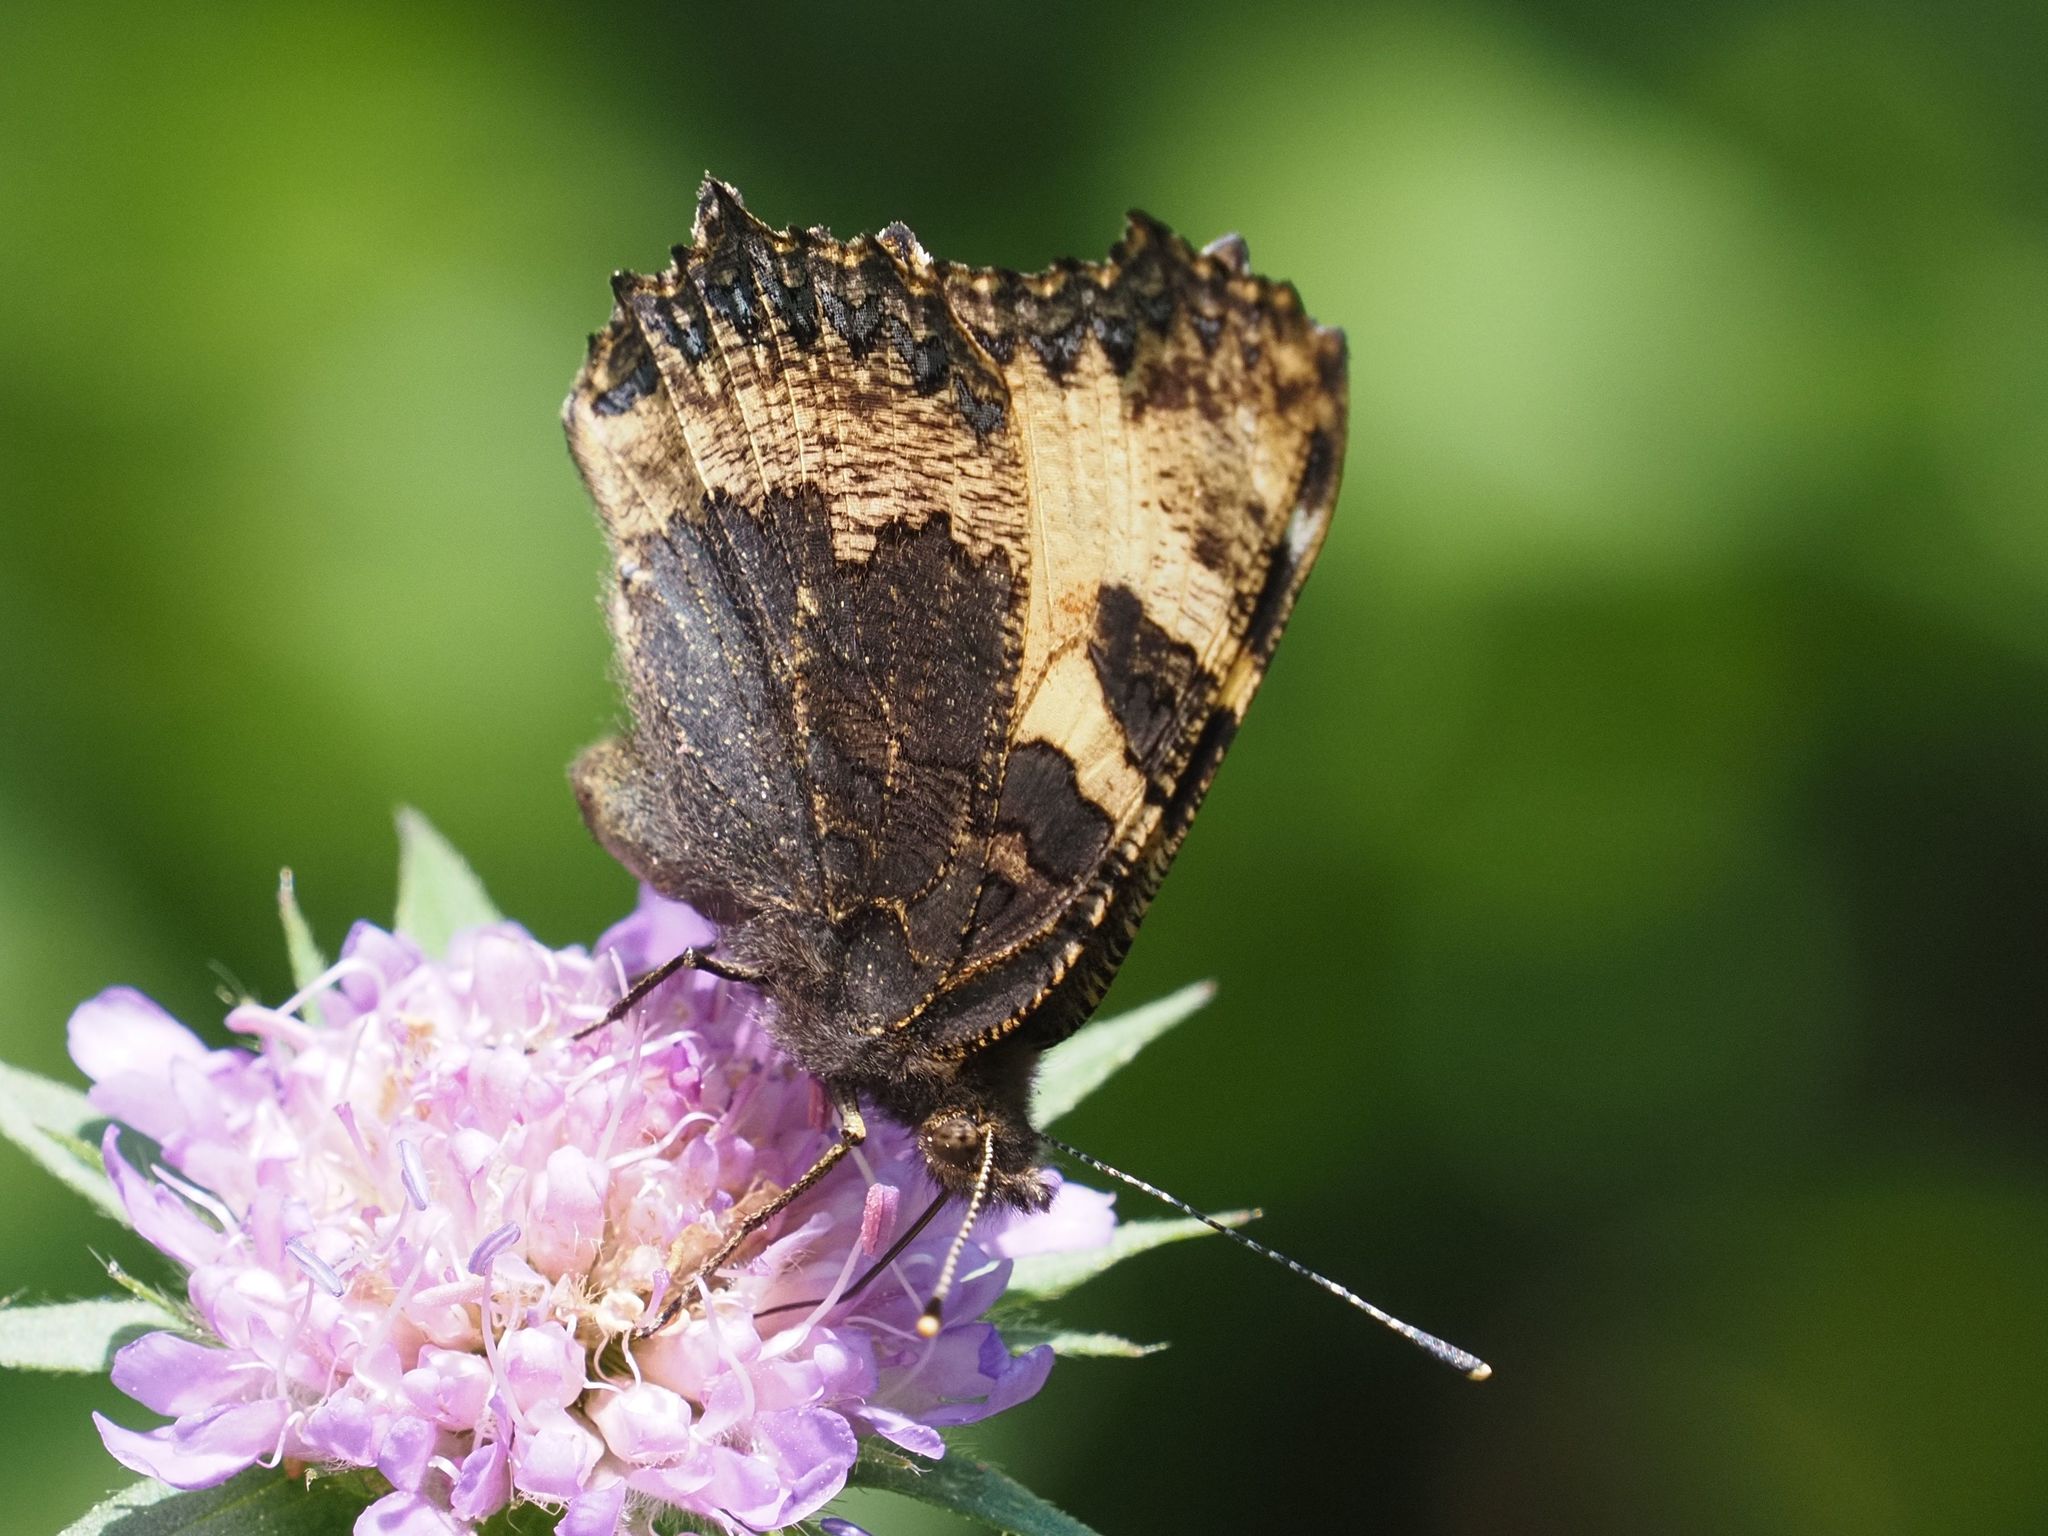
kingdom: Animalia
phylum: Arthropoda
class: Insecta
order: Lepidoptera
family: Nymphalidae
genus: Aglais
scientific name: Aglais urticae
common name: Small tortoiseshell
